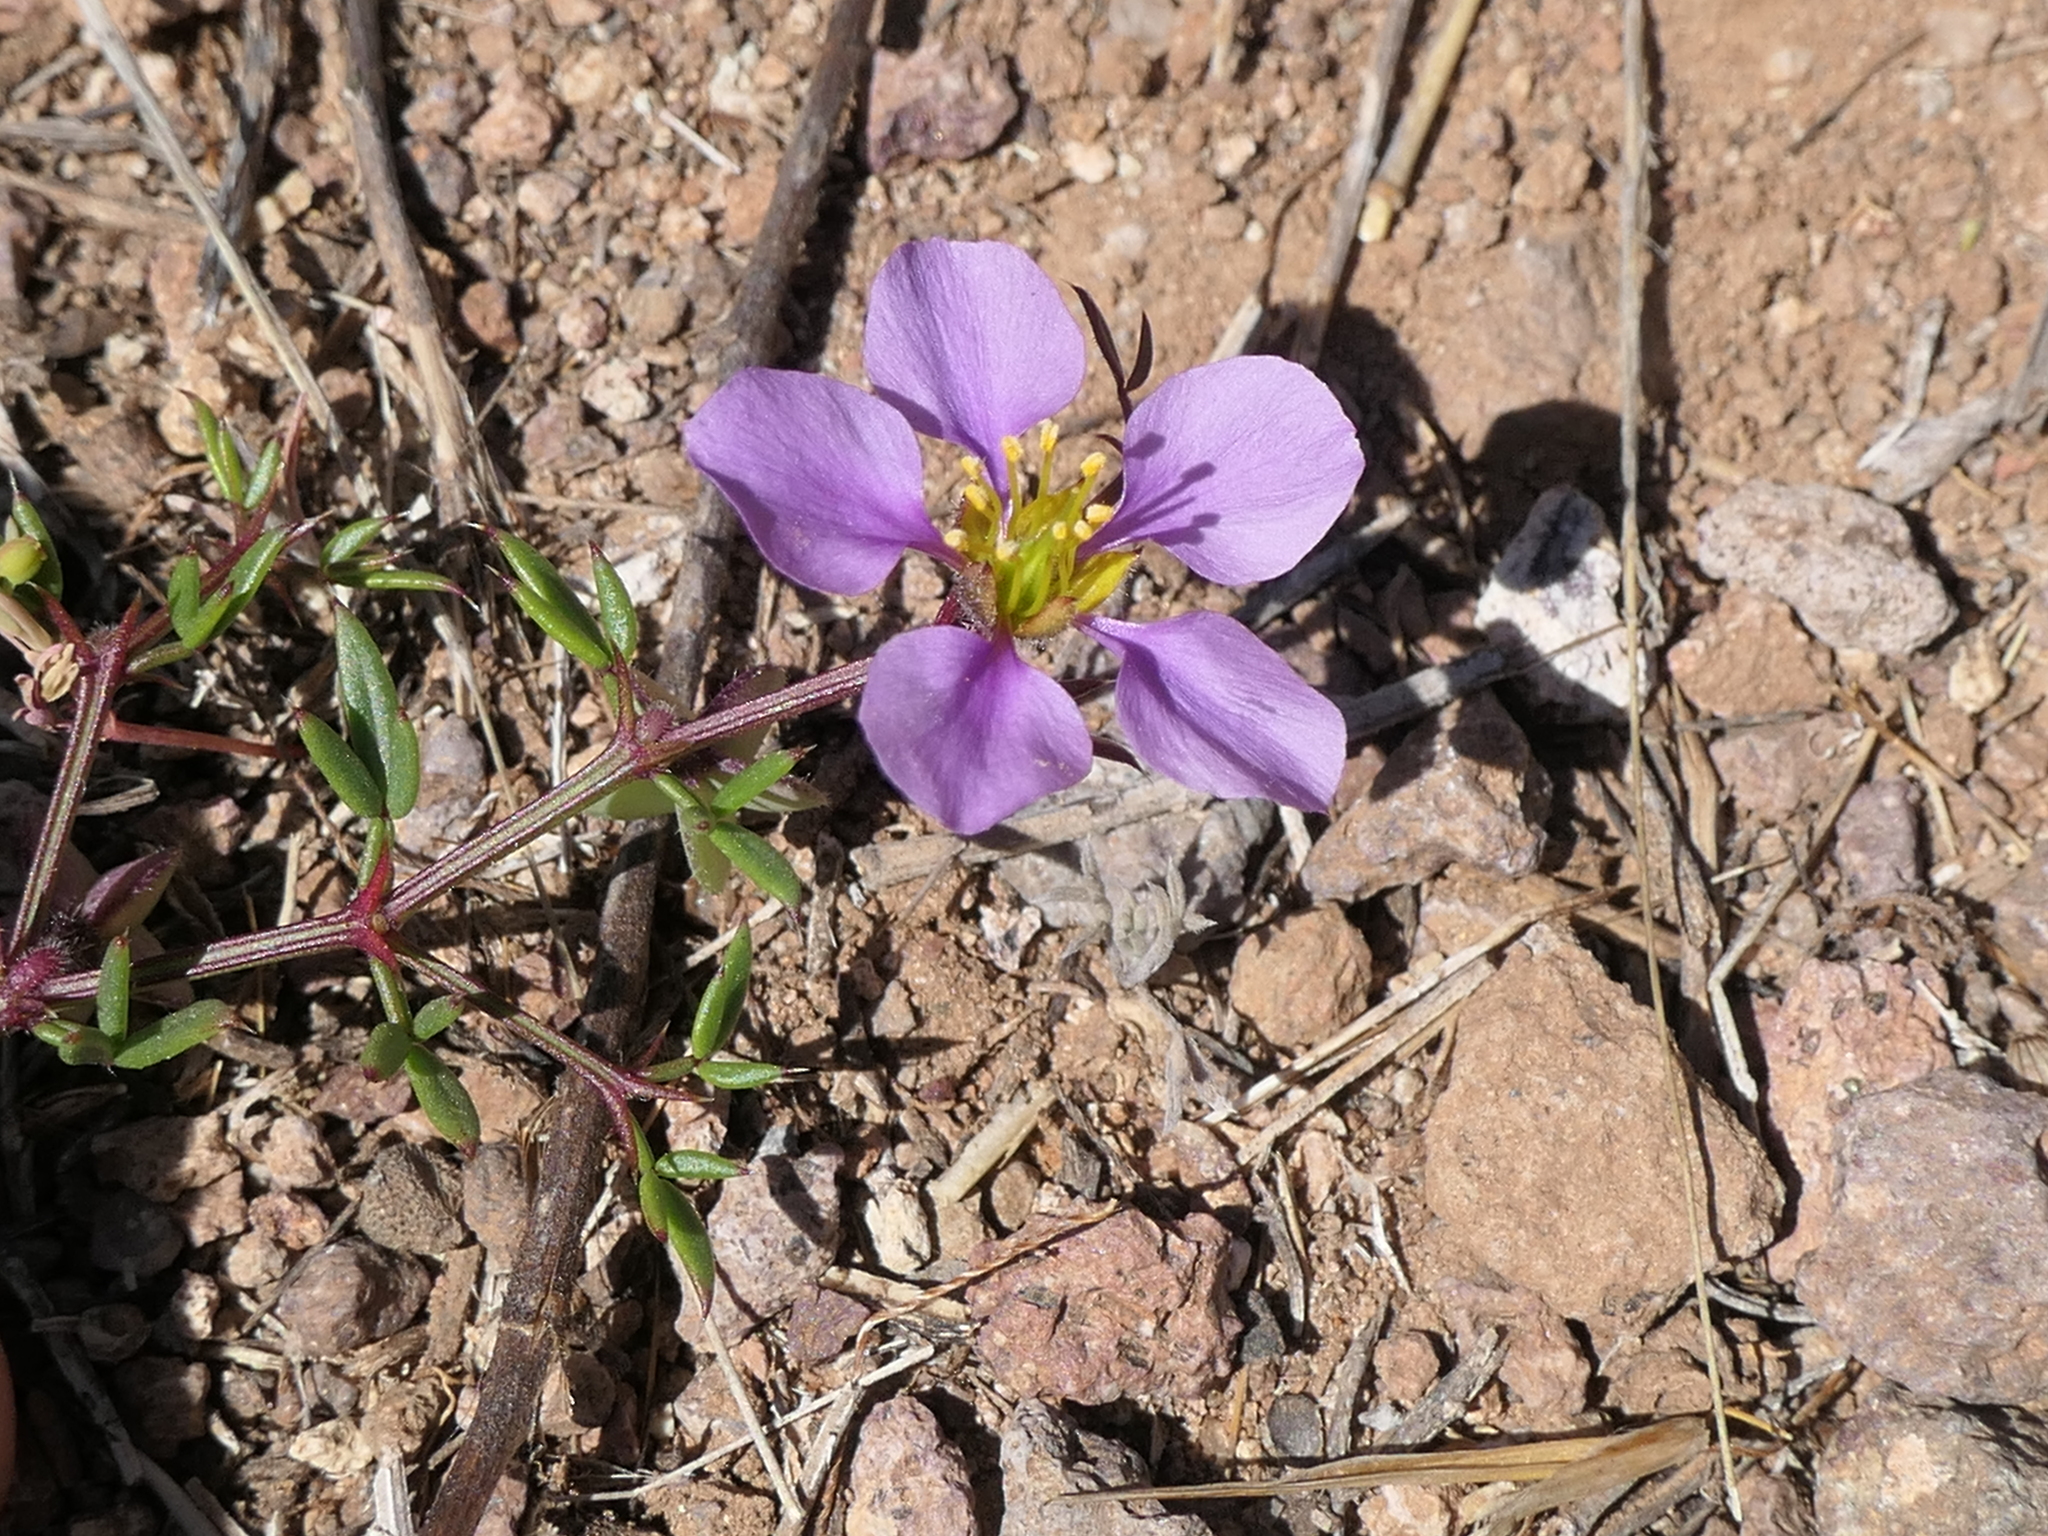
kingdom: Plantae
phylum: Tracheophyta
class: Magnoliopsida
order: Zygophyllales
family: Zygophyllaceae
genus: Fagonia
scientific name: Fagonia cretica
